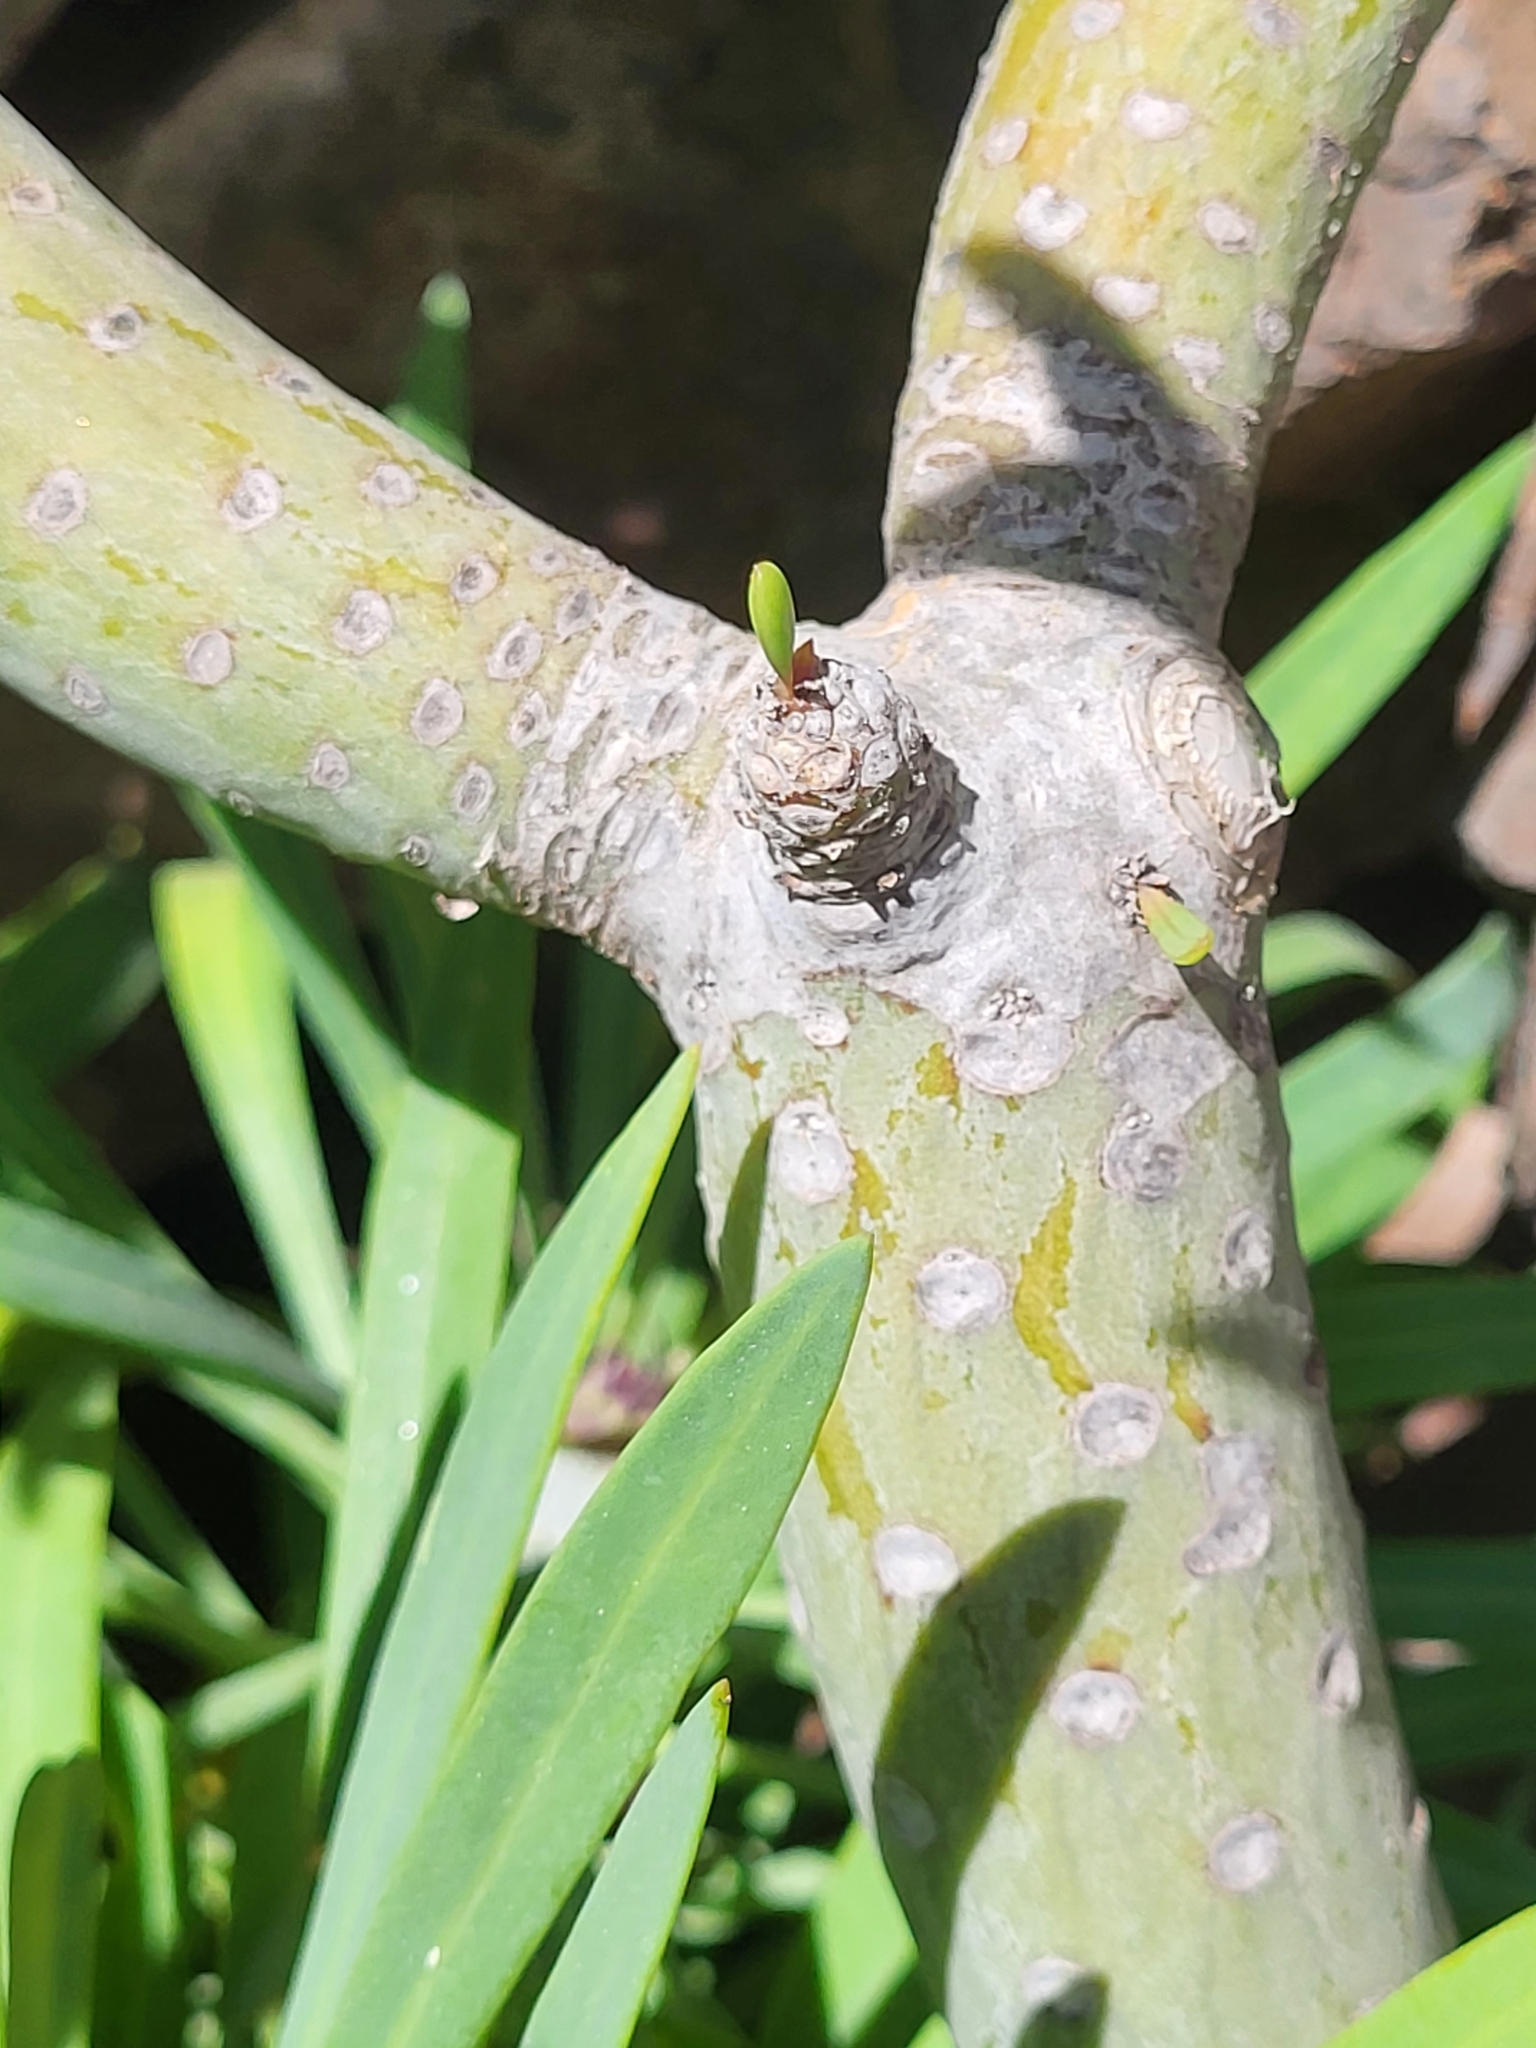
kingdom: Plantae
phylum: Tracheophyta
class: Magnoliopsida
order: Asterales
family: Asteraceae
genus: Kleinia
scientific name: Kleinia neriifolia
